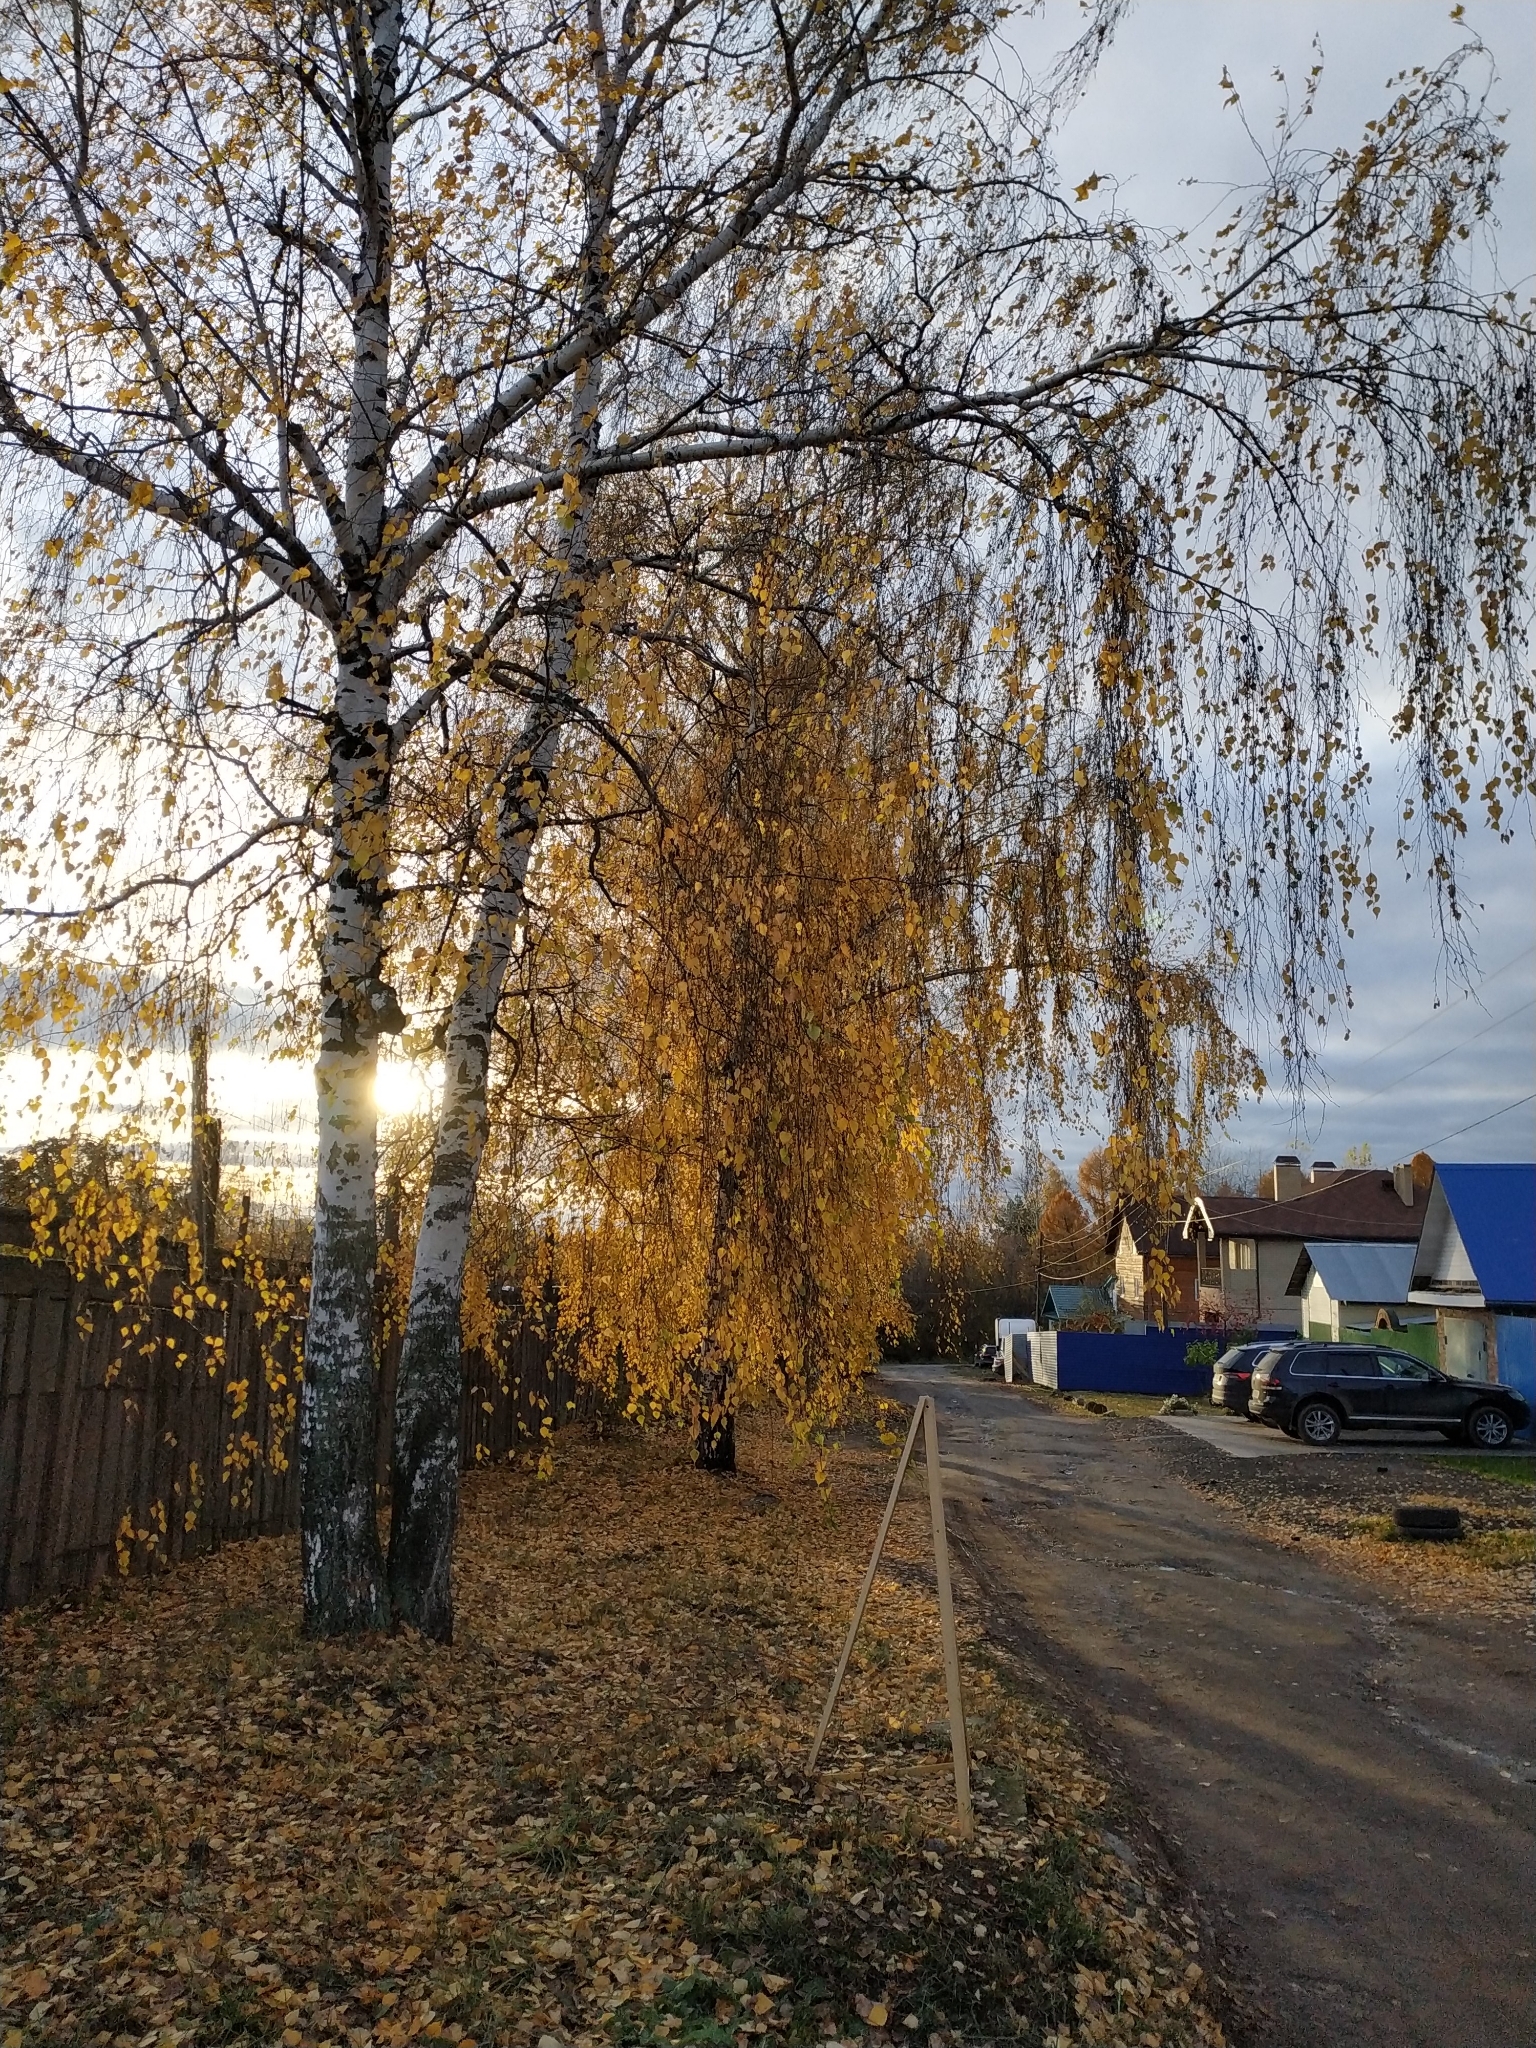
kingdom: Plantae
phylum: Tracheophyta
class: Magnoliopsida
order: Fagales
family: Betulaceae
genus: Betula
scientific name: Betula pendula
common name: Silver birch
